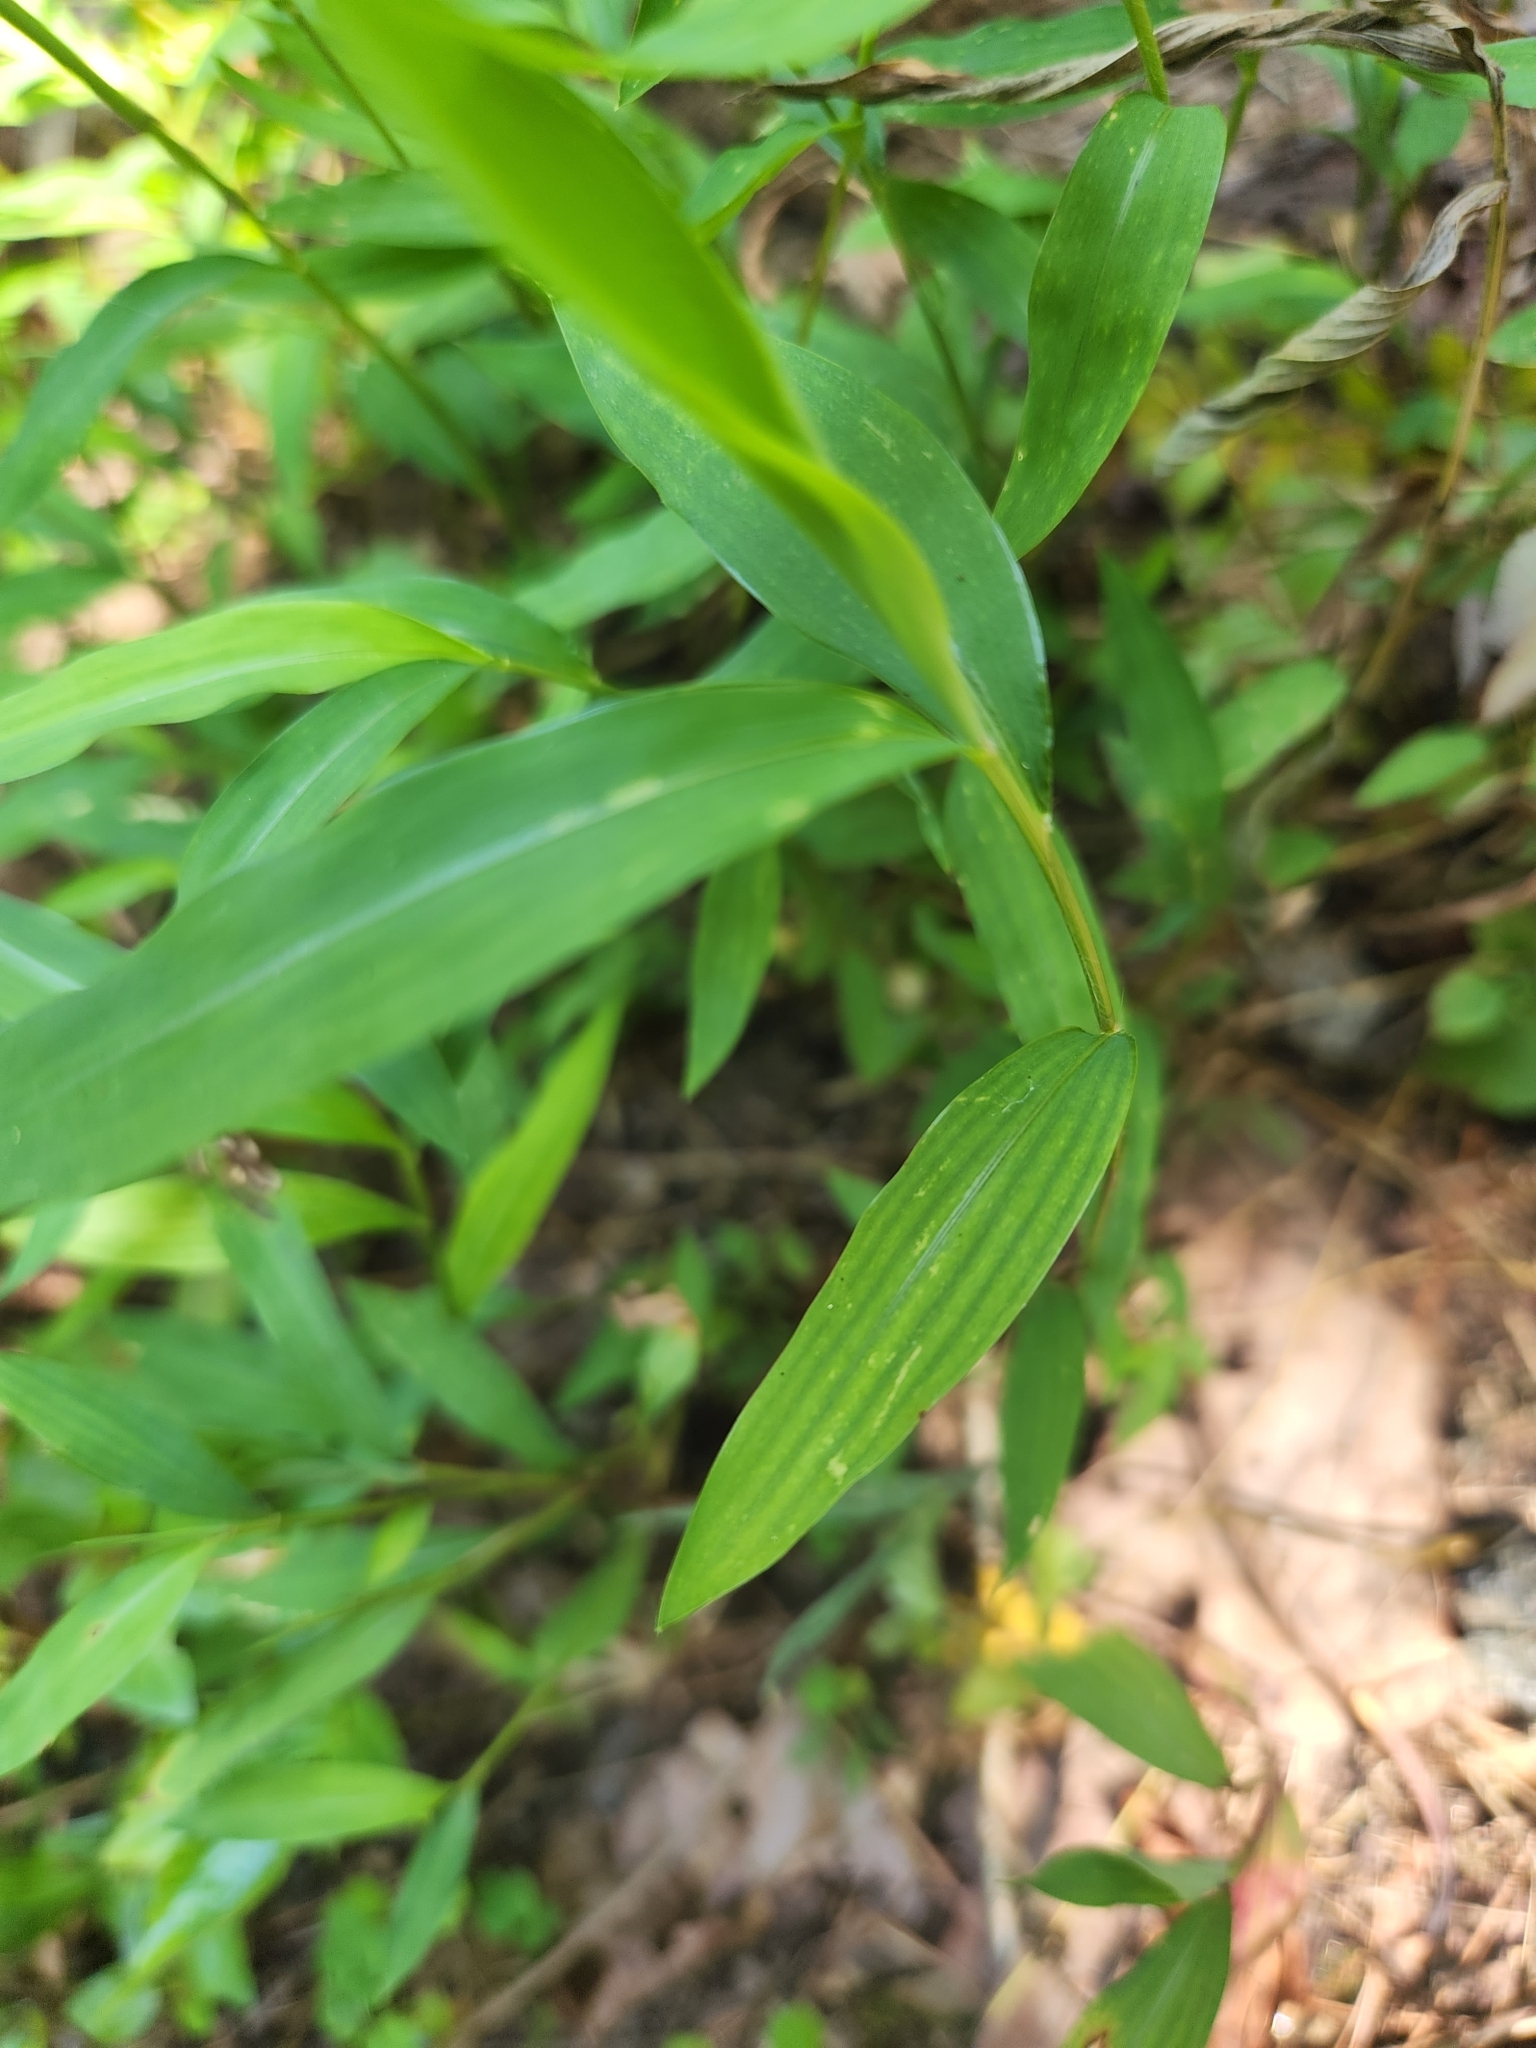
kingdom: Plantae
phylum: Tracheophyta
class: Liliopsida
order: Poales
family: Poaceae
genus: Microstegium
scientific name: Microstegium vimineum
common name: Japanese stiltgrass
